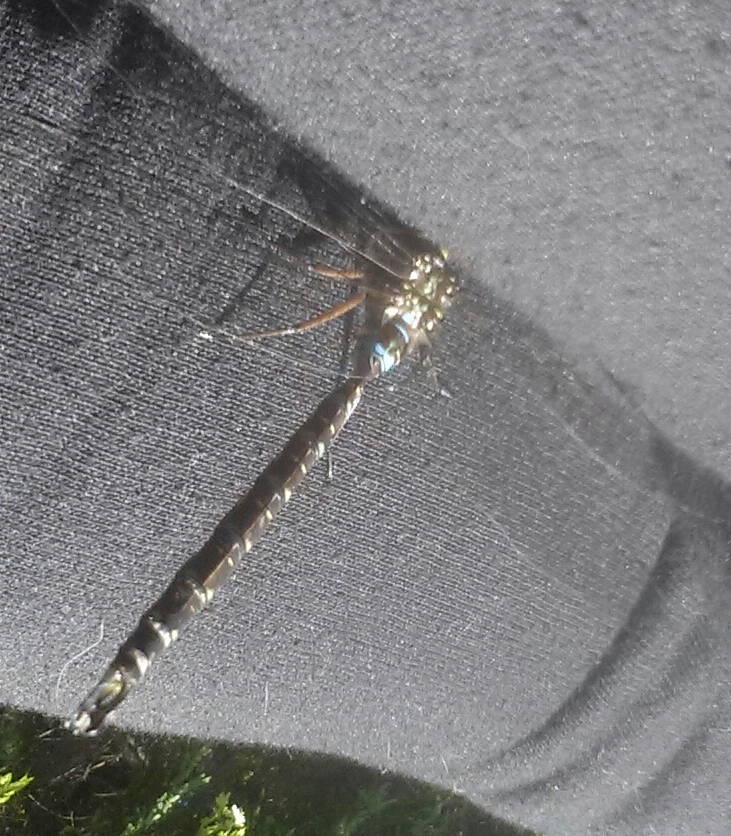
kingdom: Animalia
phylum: Arthropoda
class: Insecta
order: Odonata
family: Aeshnidae
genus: Aeshna
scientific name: Aeshna umbrosa
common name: Shadow darner
